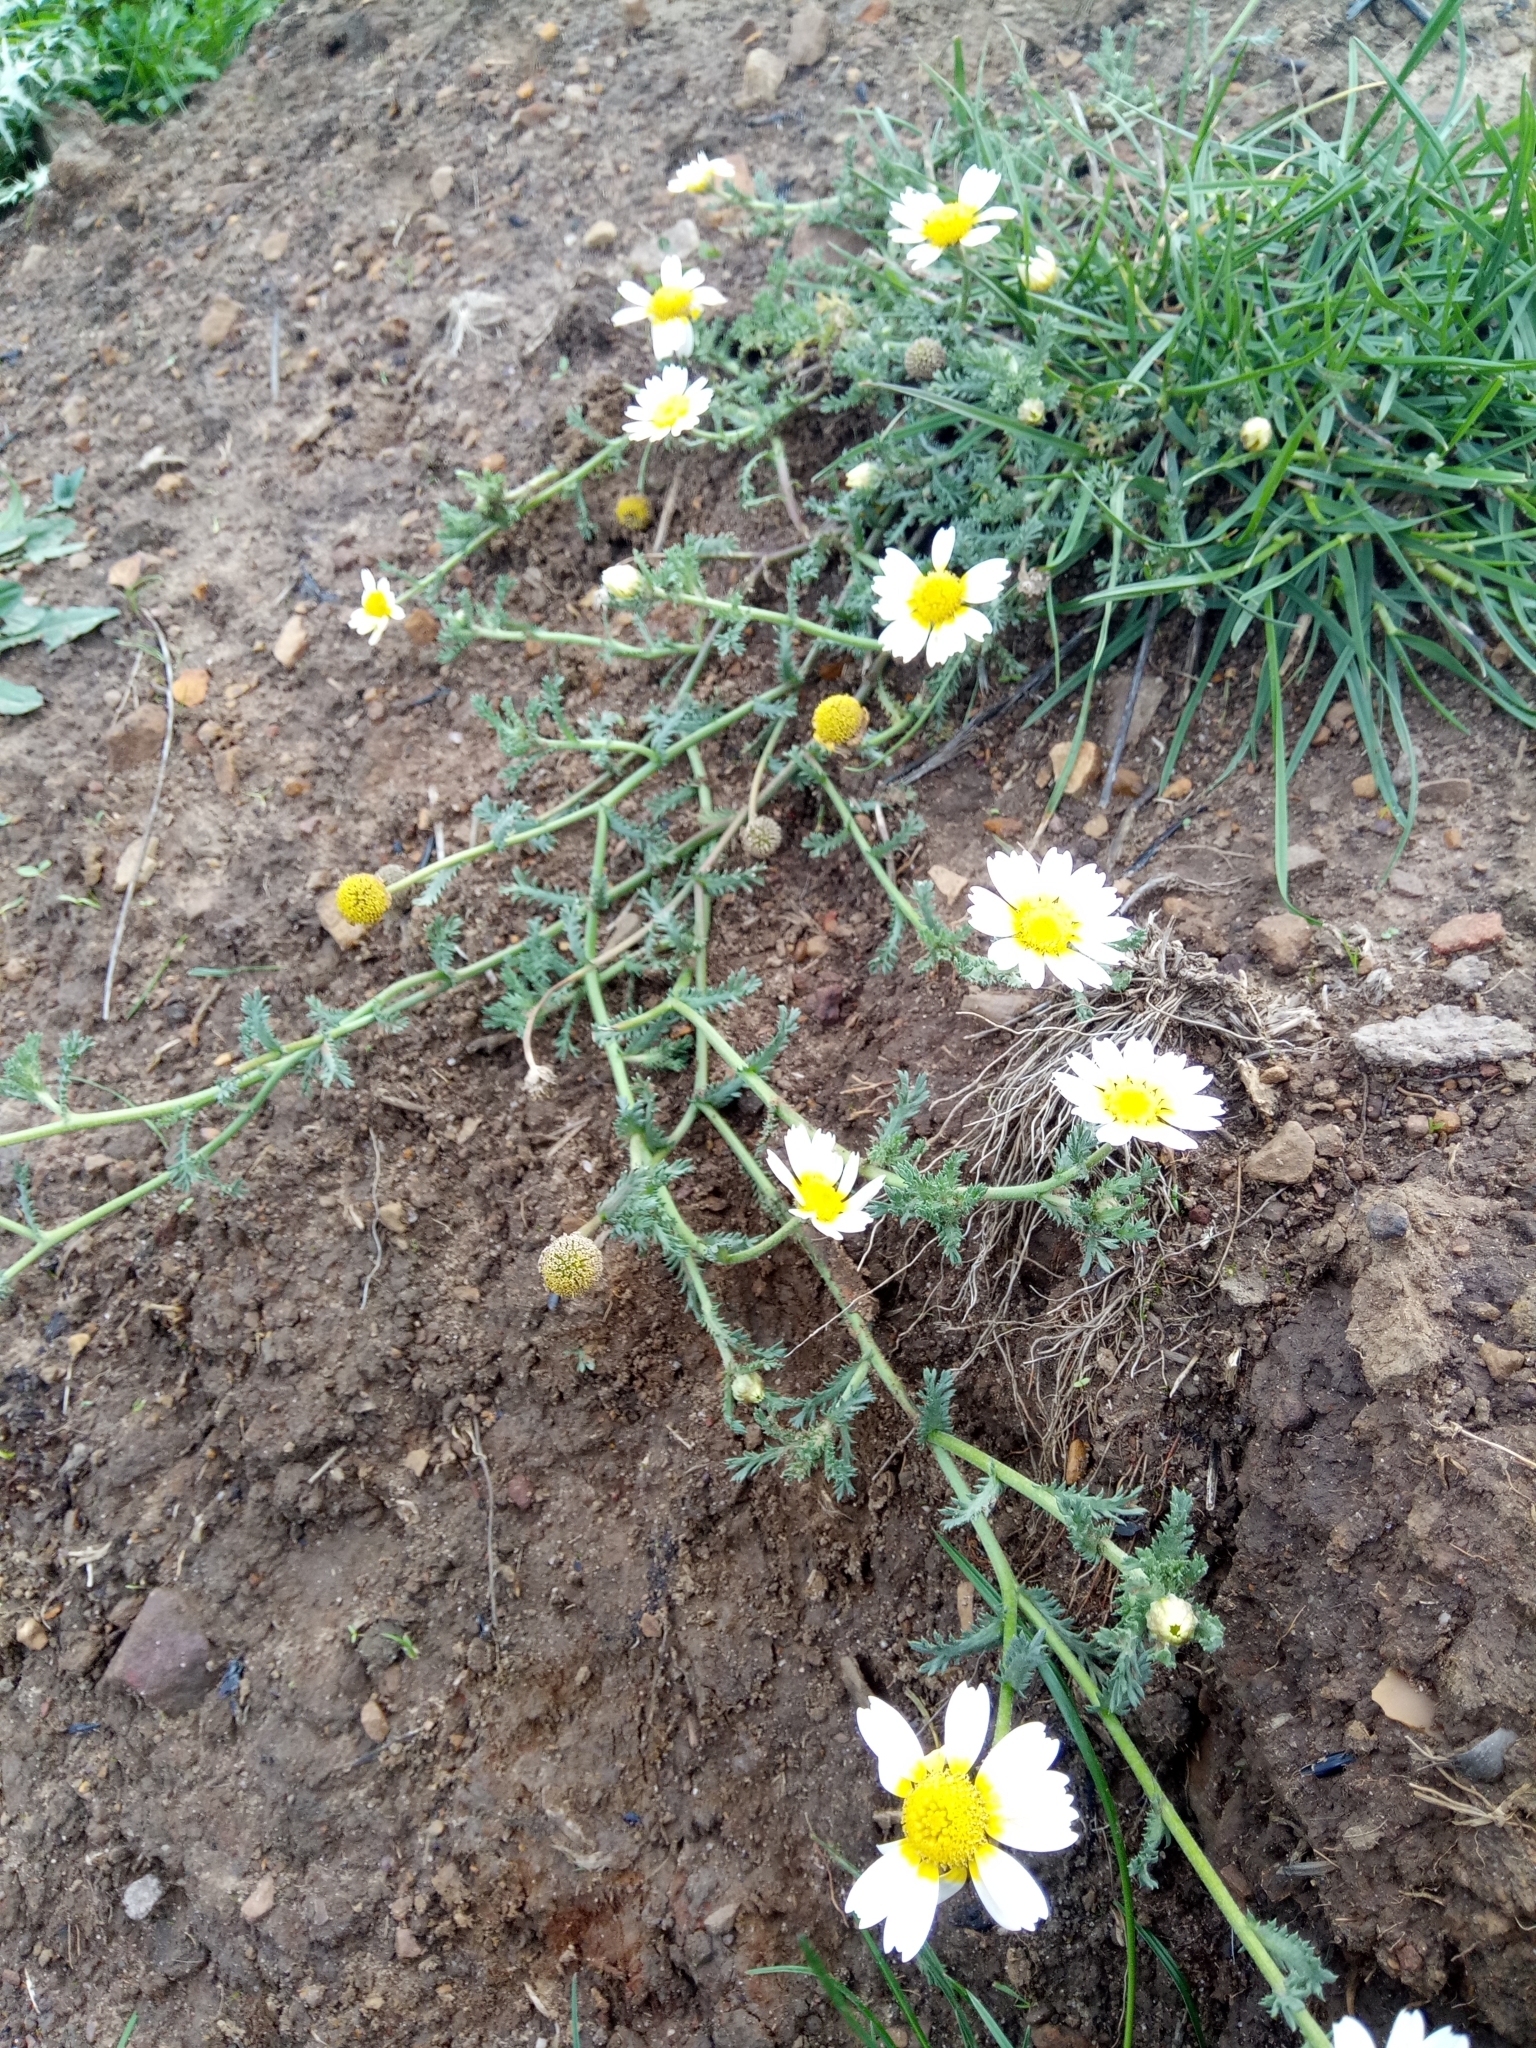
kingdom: Plantae
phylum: Tracheophyta
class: Magnoliopsida
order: Asterales
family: Asteraceae
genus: Glebionis
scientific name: Glebionis coronaria
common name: Crowndaisy
